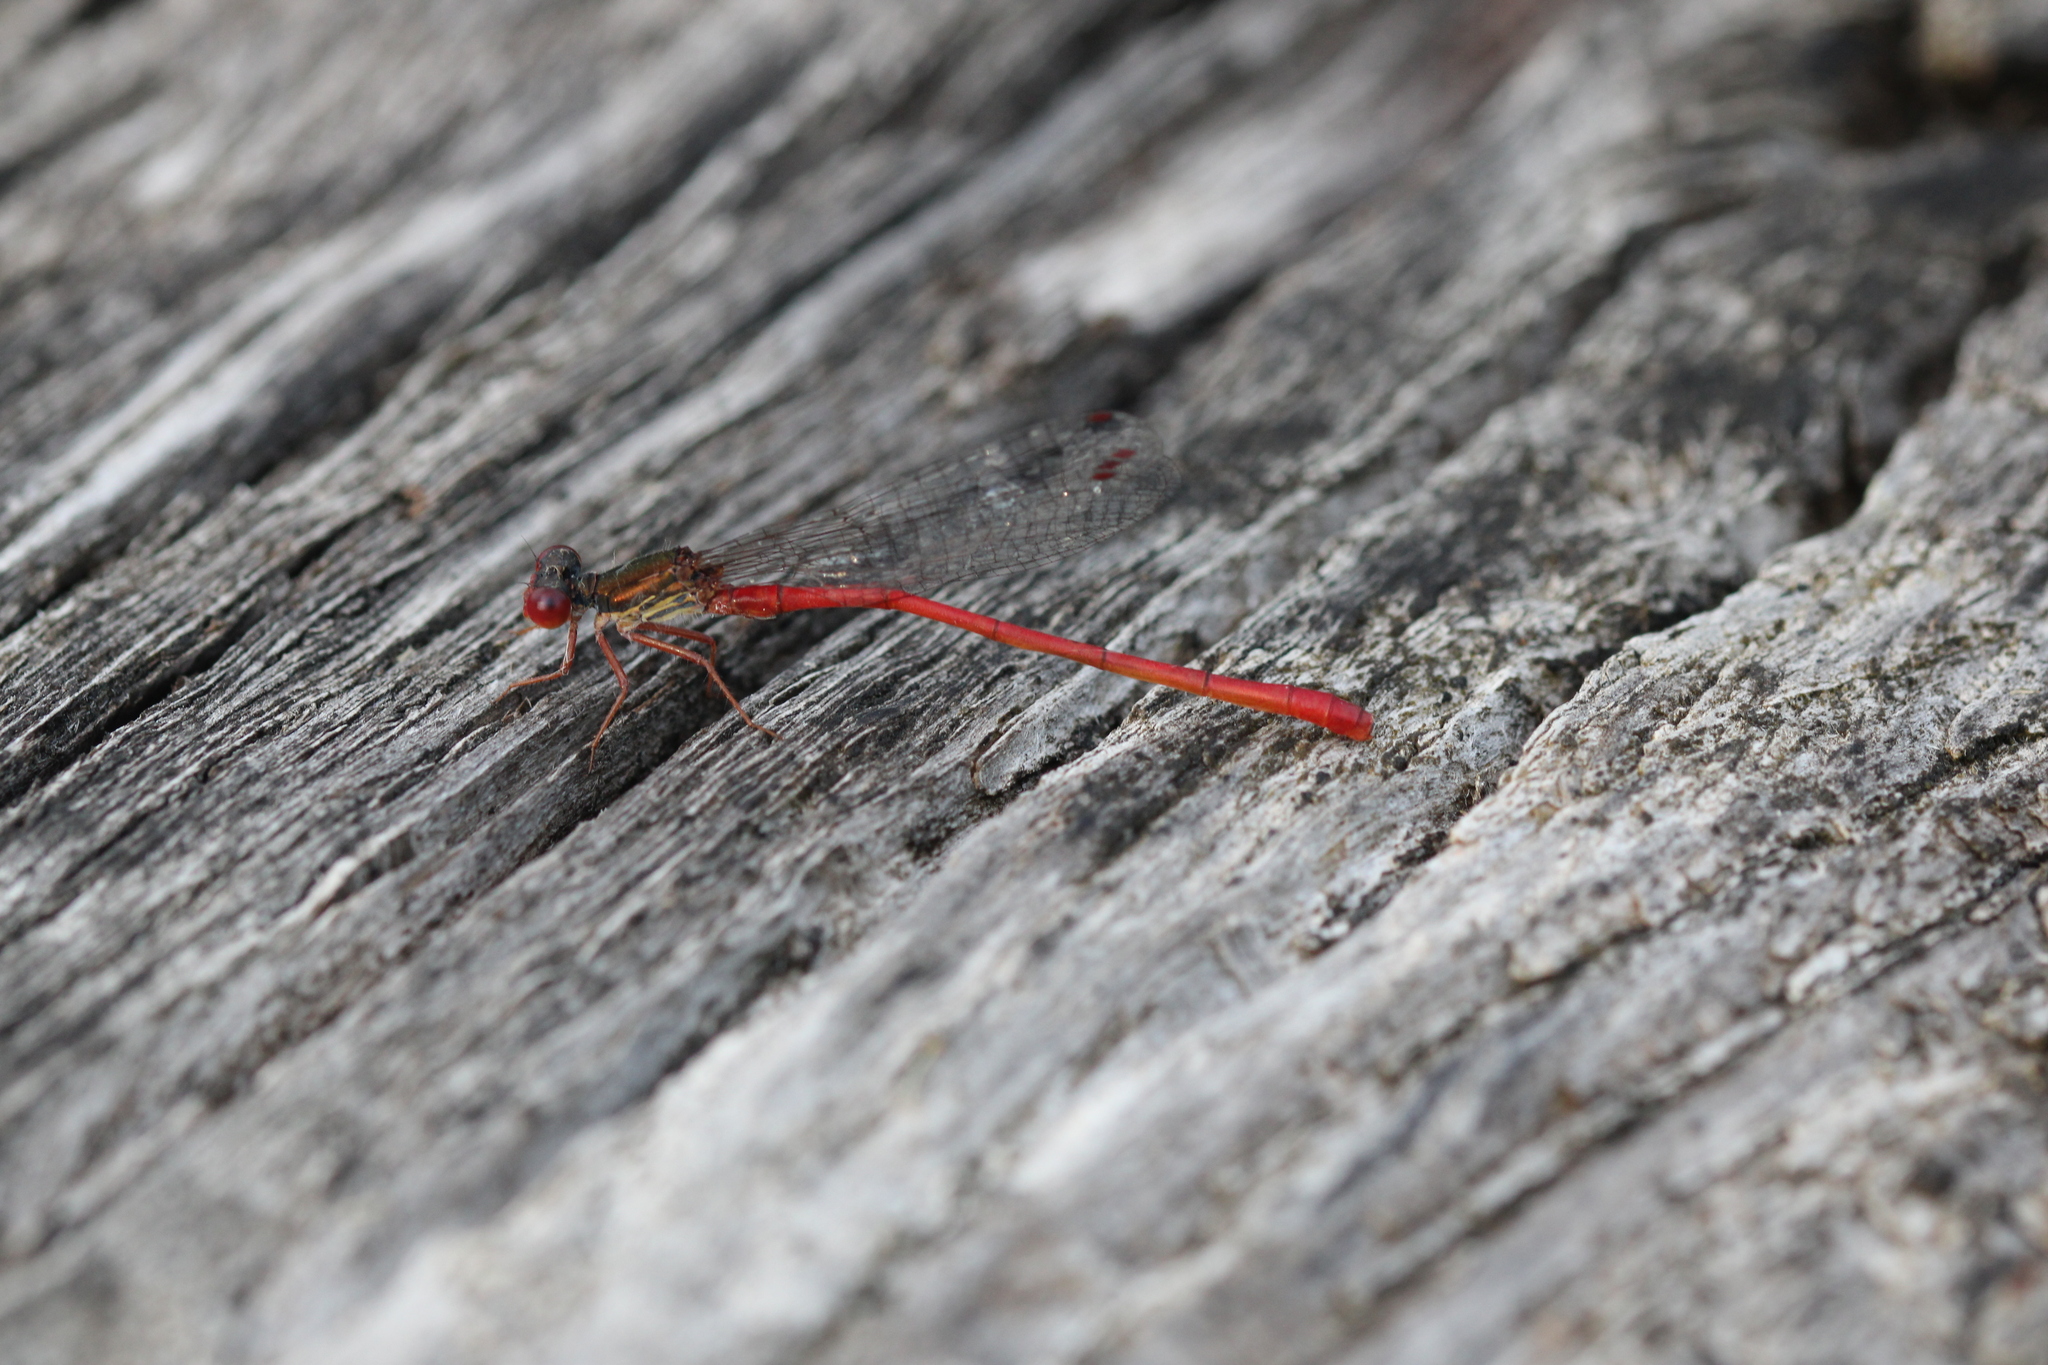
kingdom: Animalia
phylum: Arthropoda
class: Insecta
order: Odonata
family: Coenagrionidae
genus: Ceriagrion
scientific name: Ceriagrion tenellum
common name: Small red damselfly
